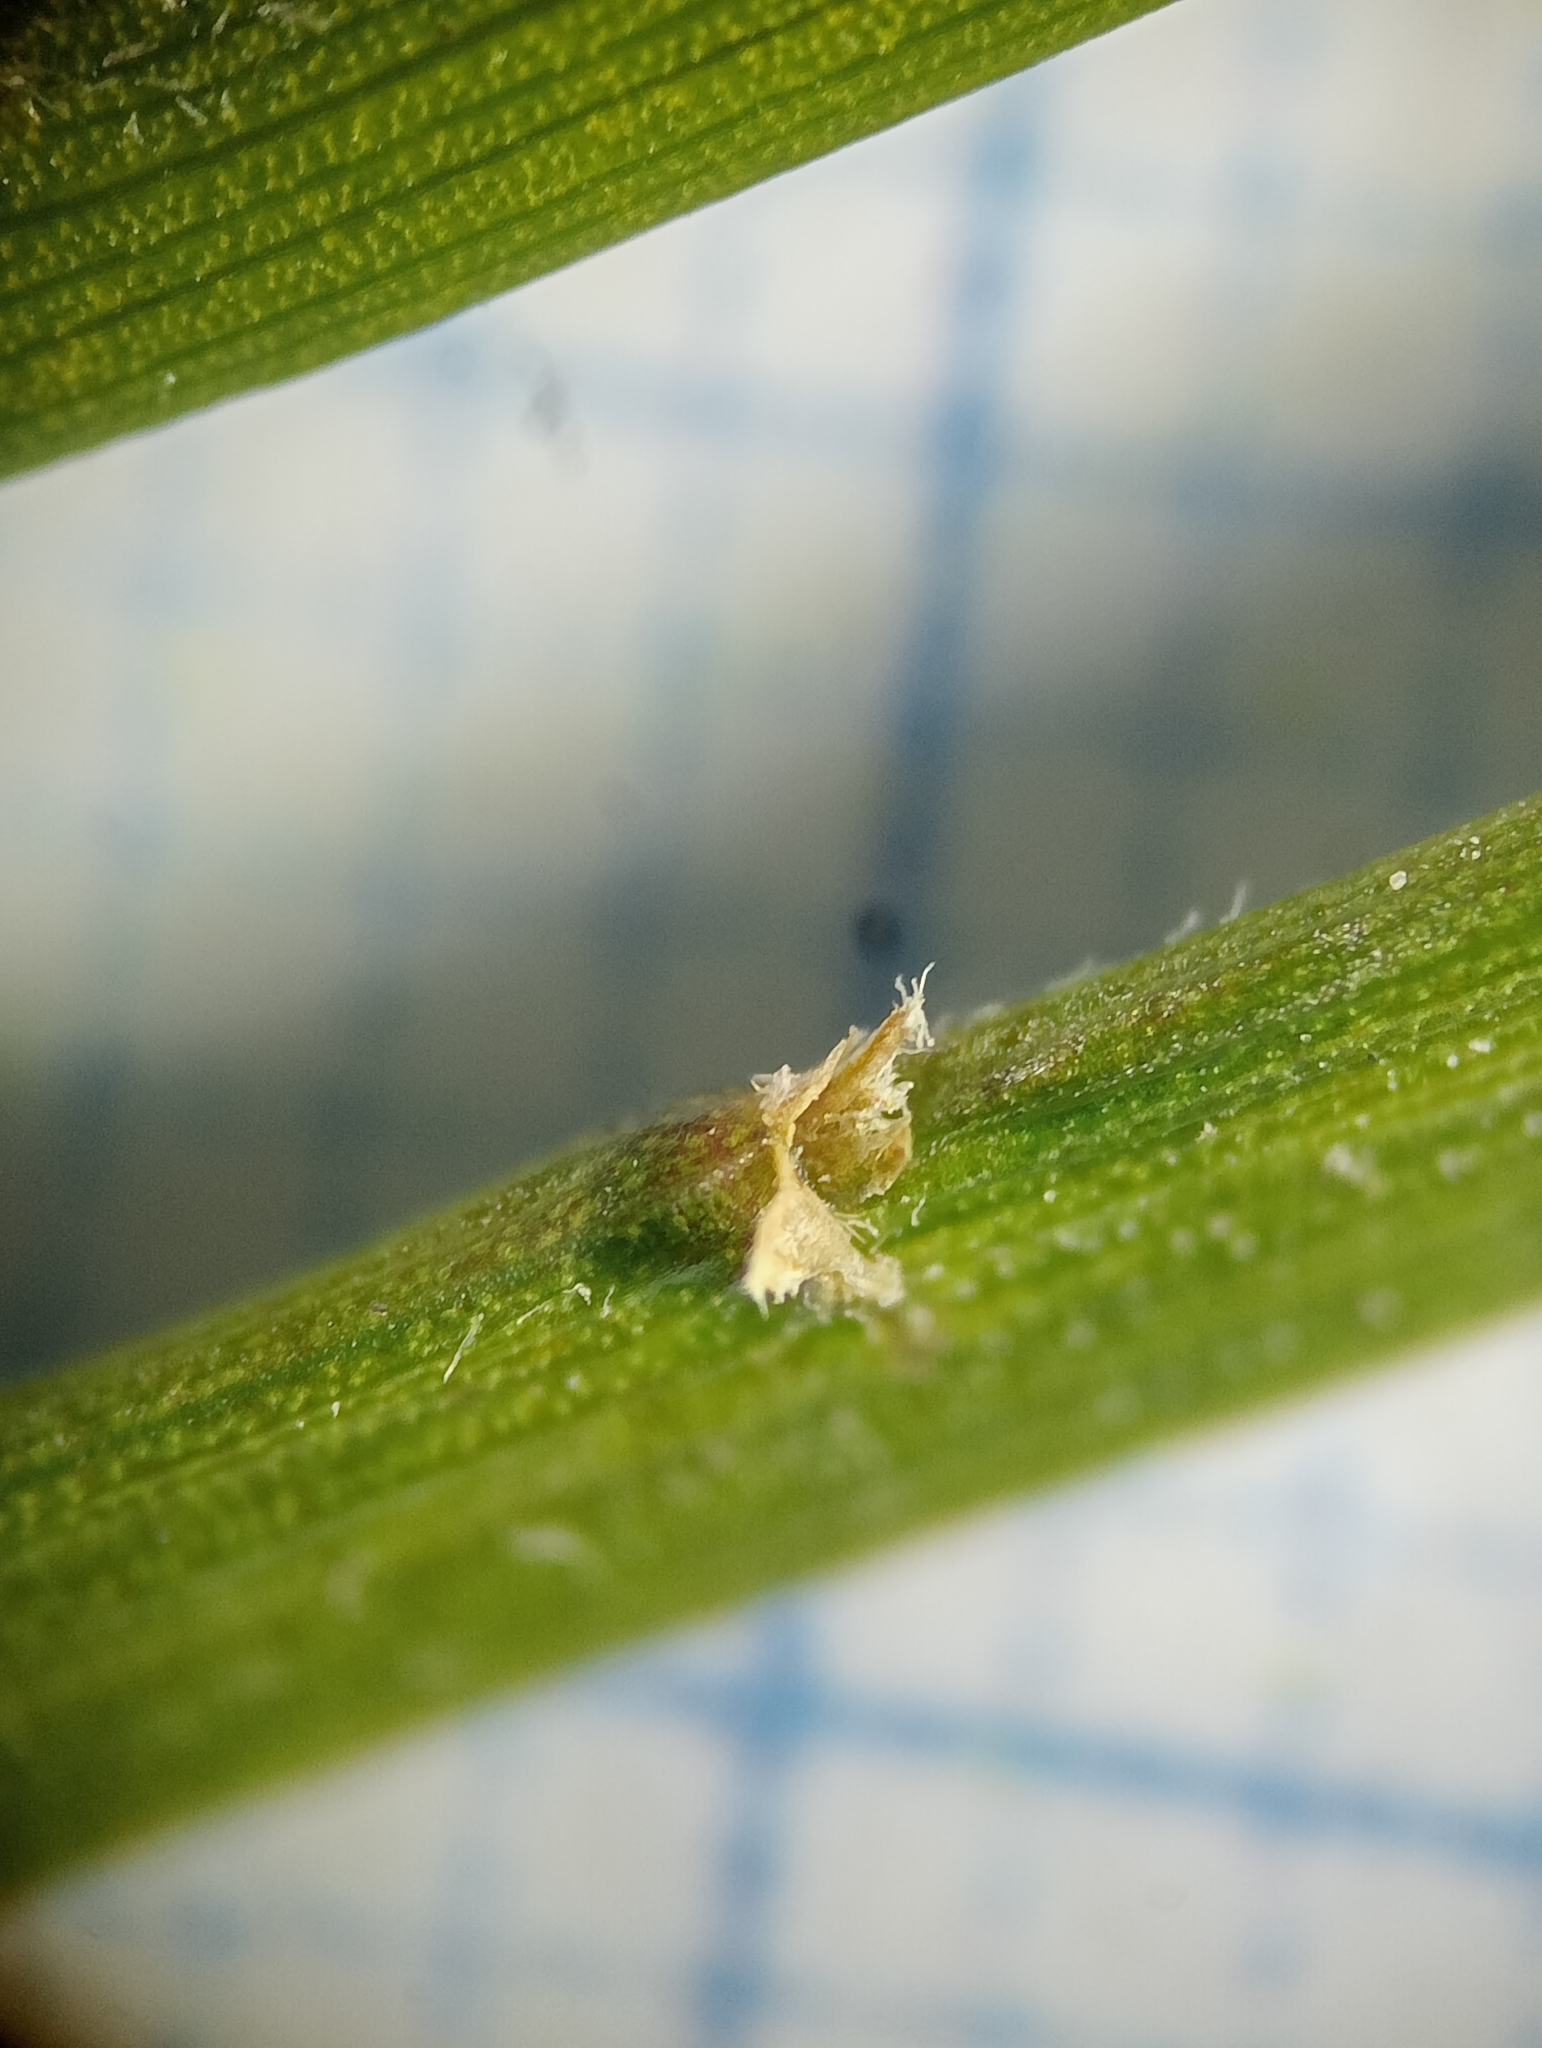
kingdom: Plantae
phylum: Tracheophyta
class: Magnoliopsida
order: Fabales
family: Fabaceae
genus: Carmichaelia
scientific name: Carmichaelia monroi
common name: Stout dwarf broom
